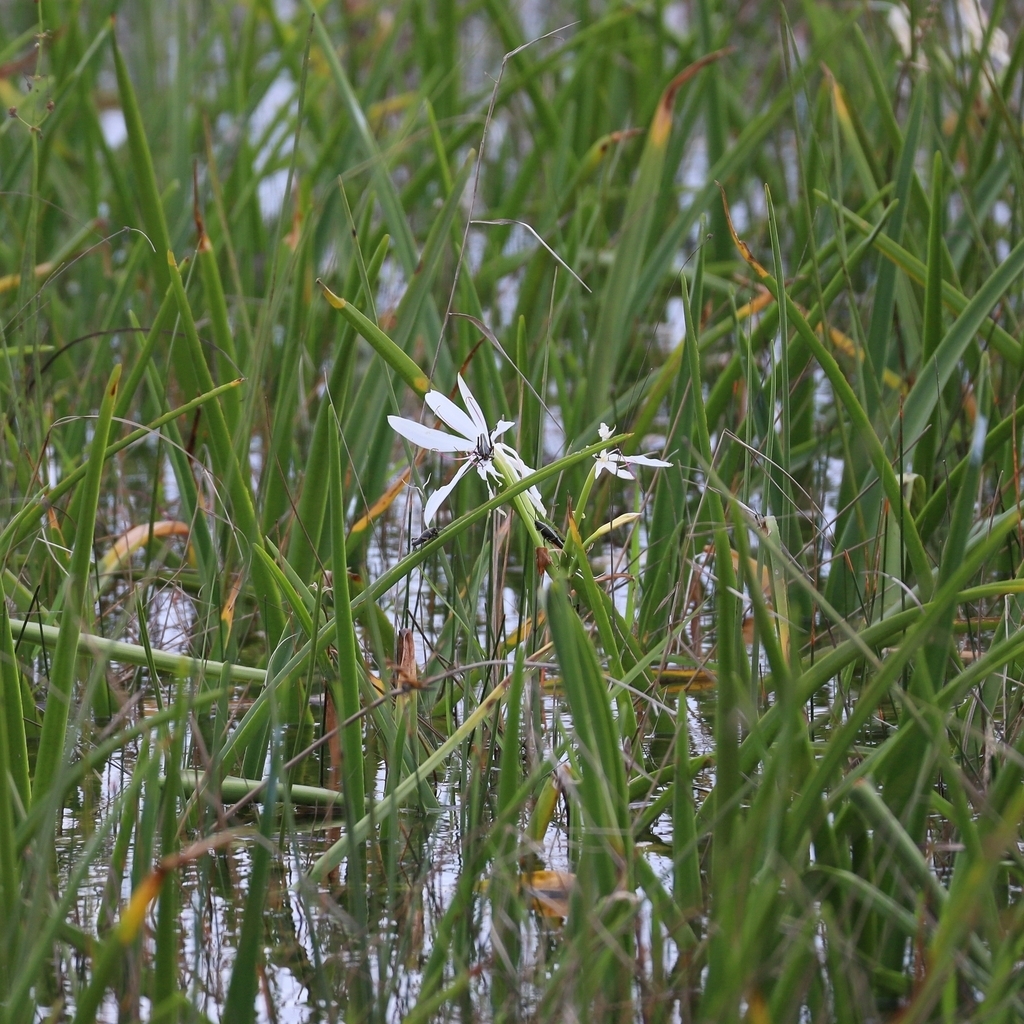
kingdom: Animalia
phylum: Arthropoda
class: Insecta
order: Orthoptera
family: Romaleidae
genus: Romalea
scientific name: Romalea microptera
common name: Eastern lubber grasshopper
